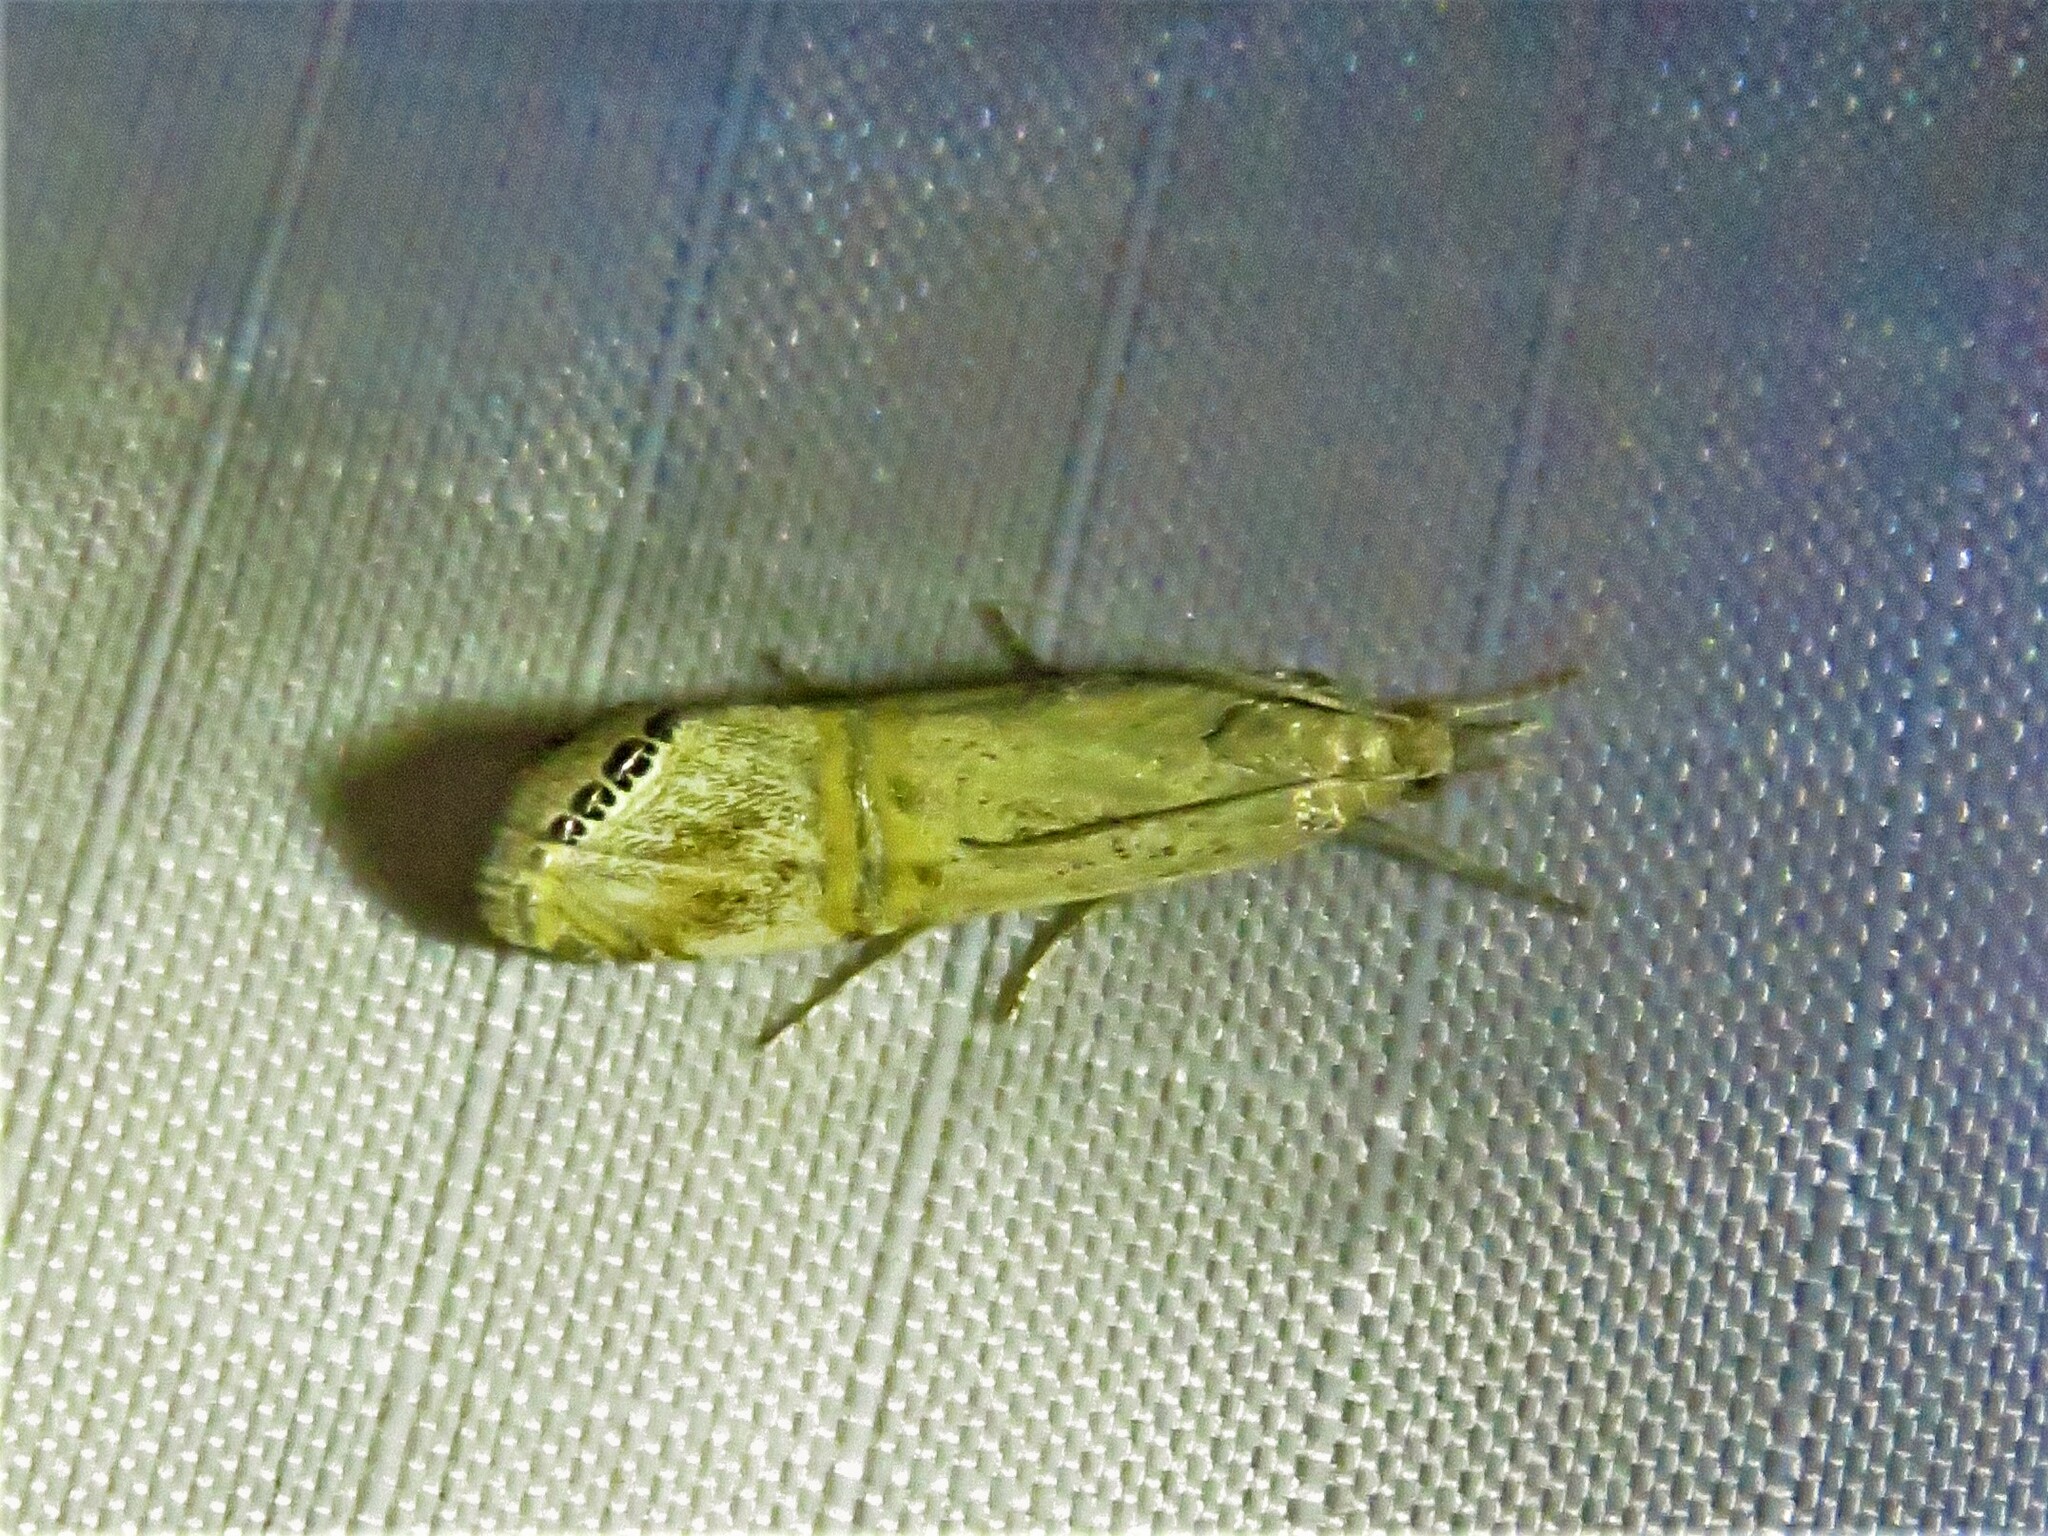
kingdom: Animalia
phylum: Arthropoda
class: Insecta
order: Lepidoptera
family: Crambidae
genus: Euchromius
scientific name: Euchromius ocellea
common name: Necklace veneer moth
